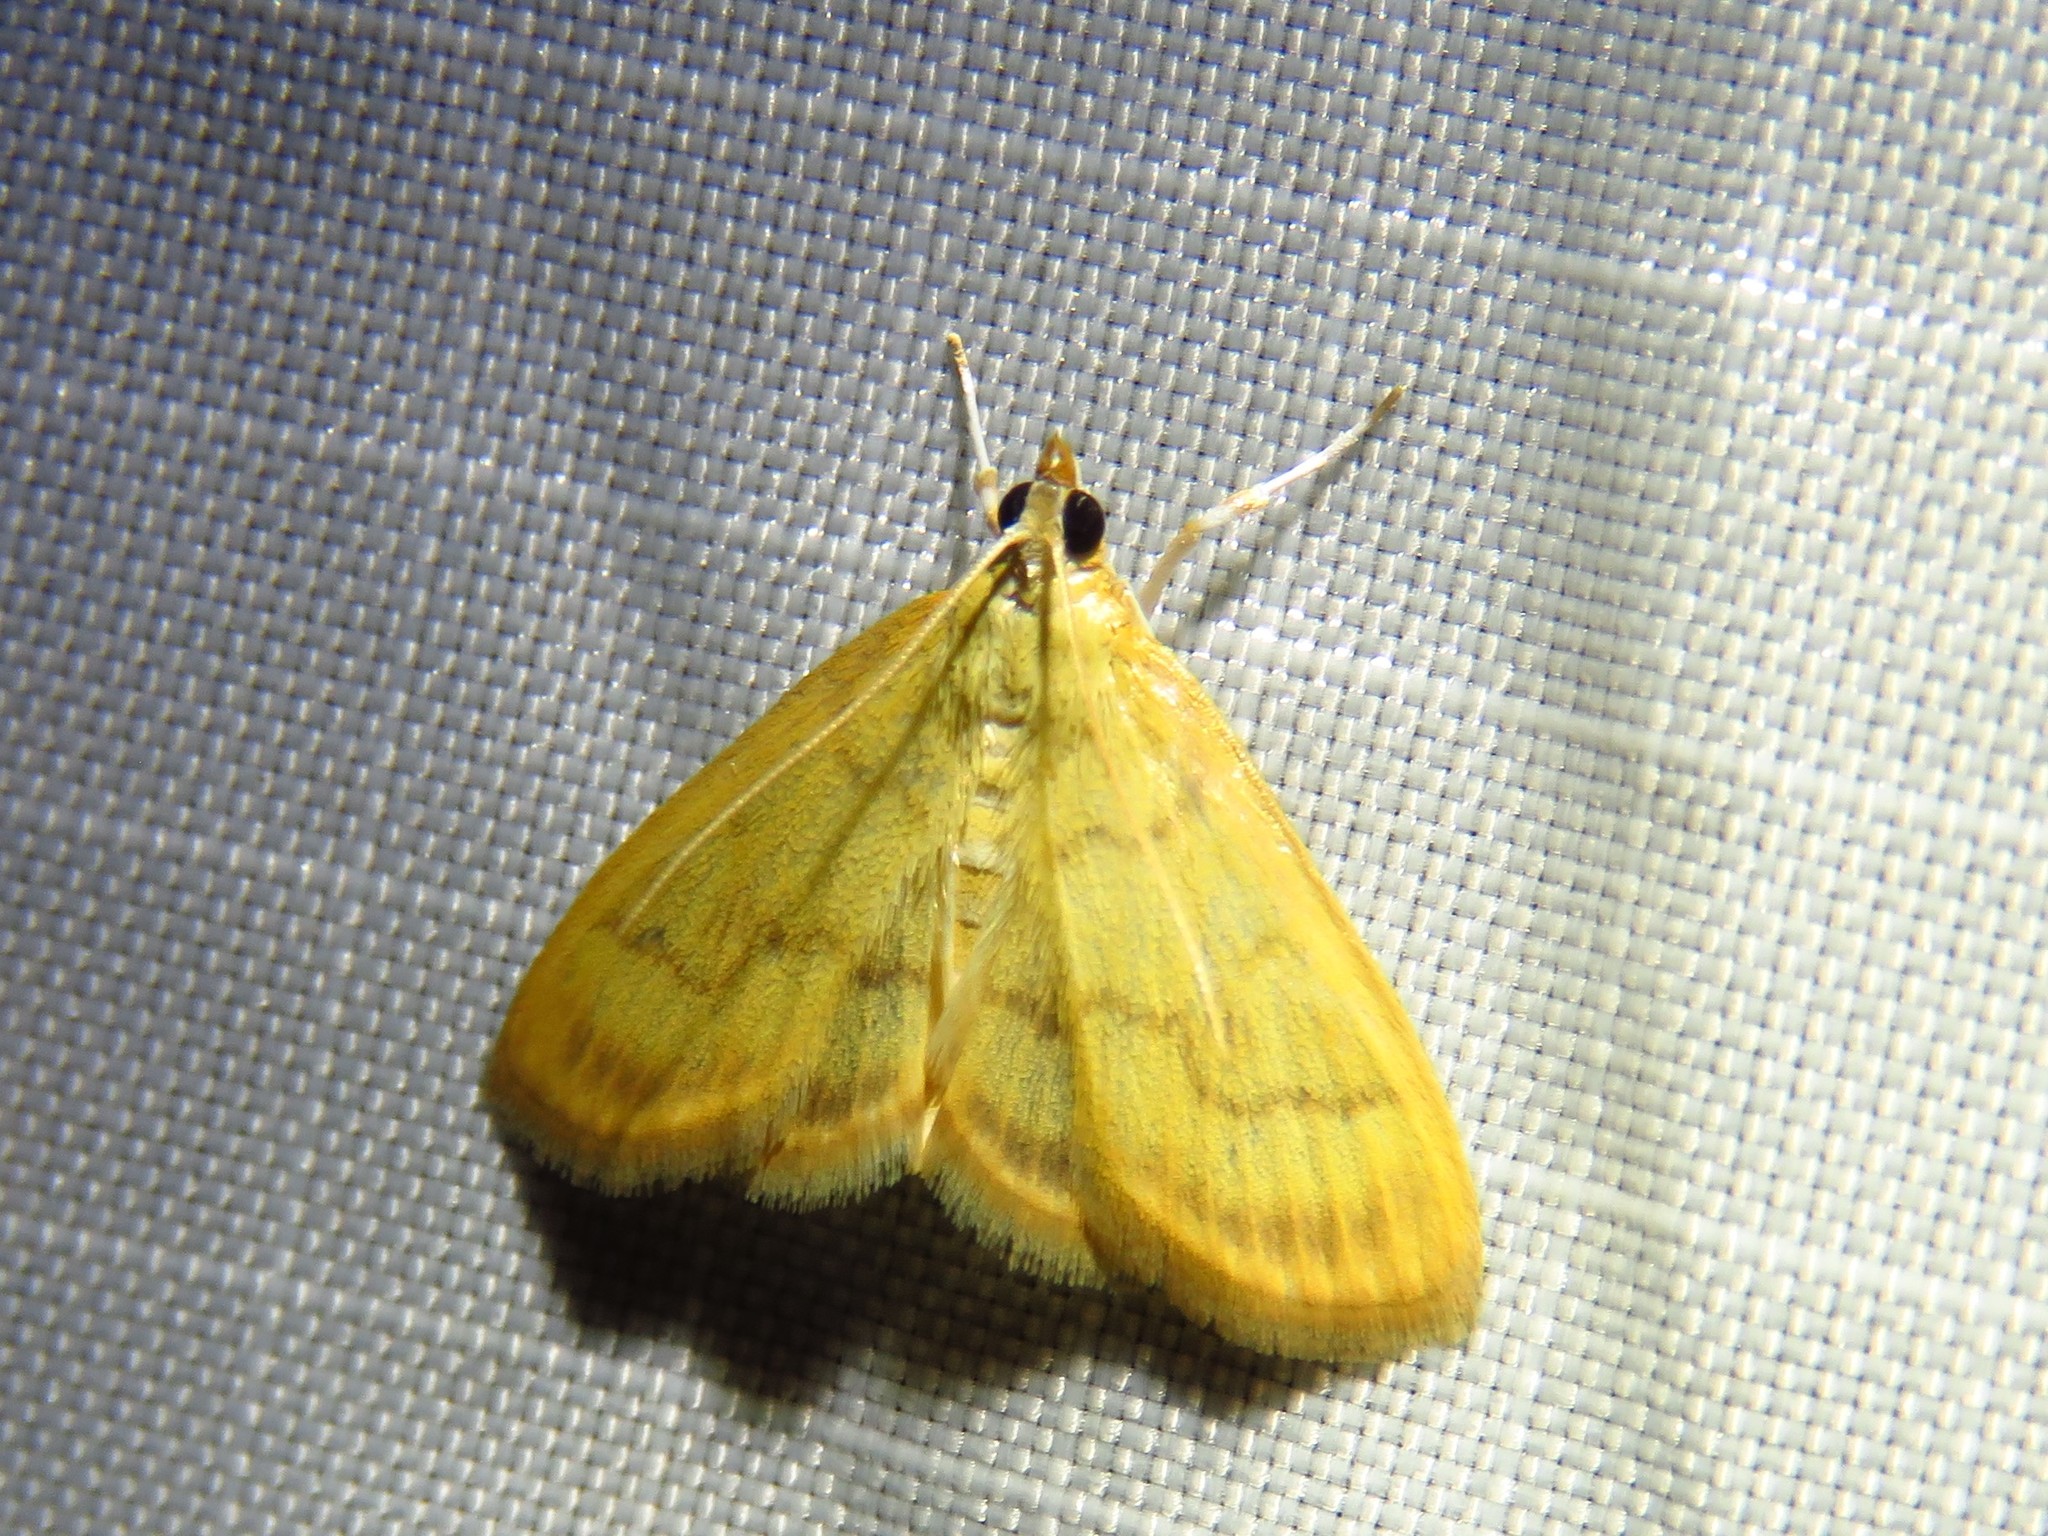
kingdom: Animalia
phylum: Arthropoda
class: Insecta
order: Lepidoptera
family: Crambidae
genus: Crocidophora
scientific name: Crocidophora tuberculalis
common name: Pale-winged crocidiphora moth
